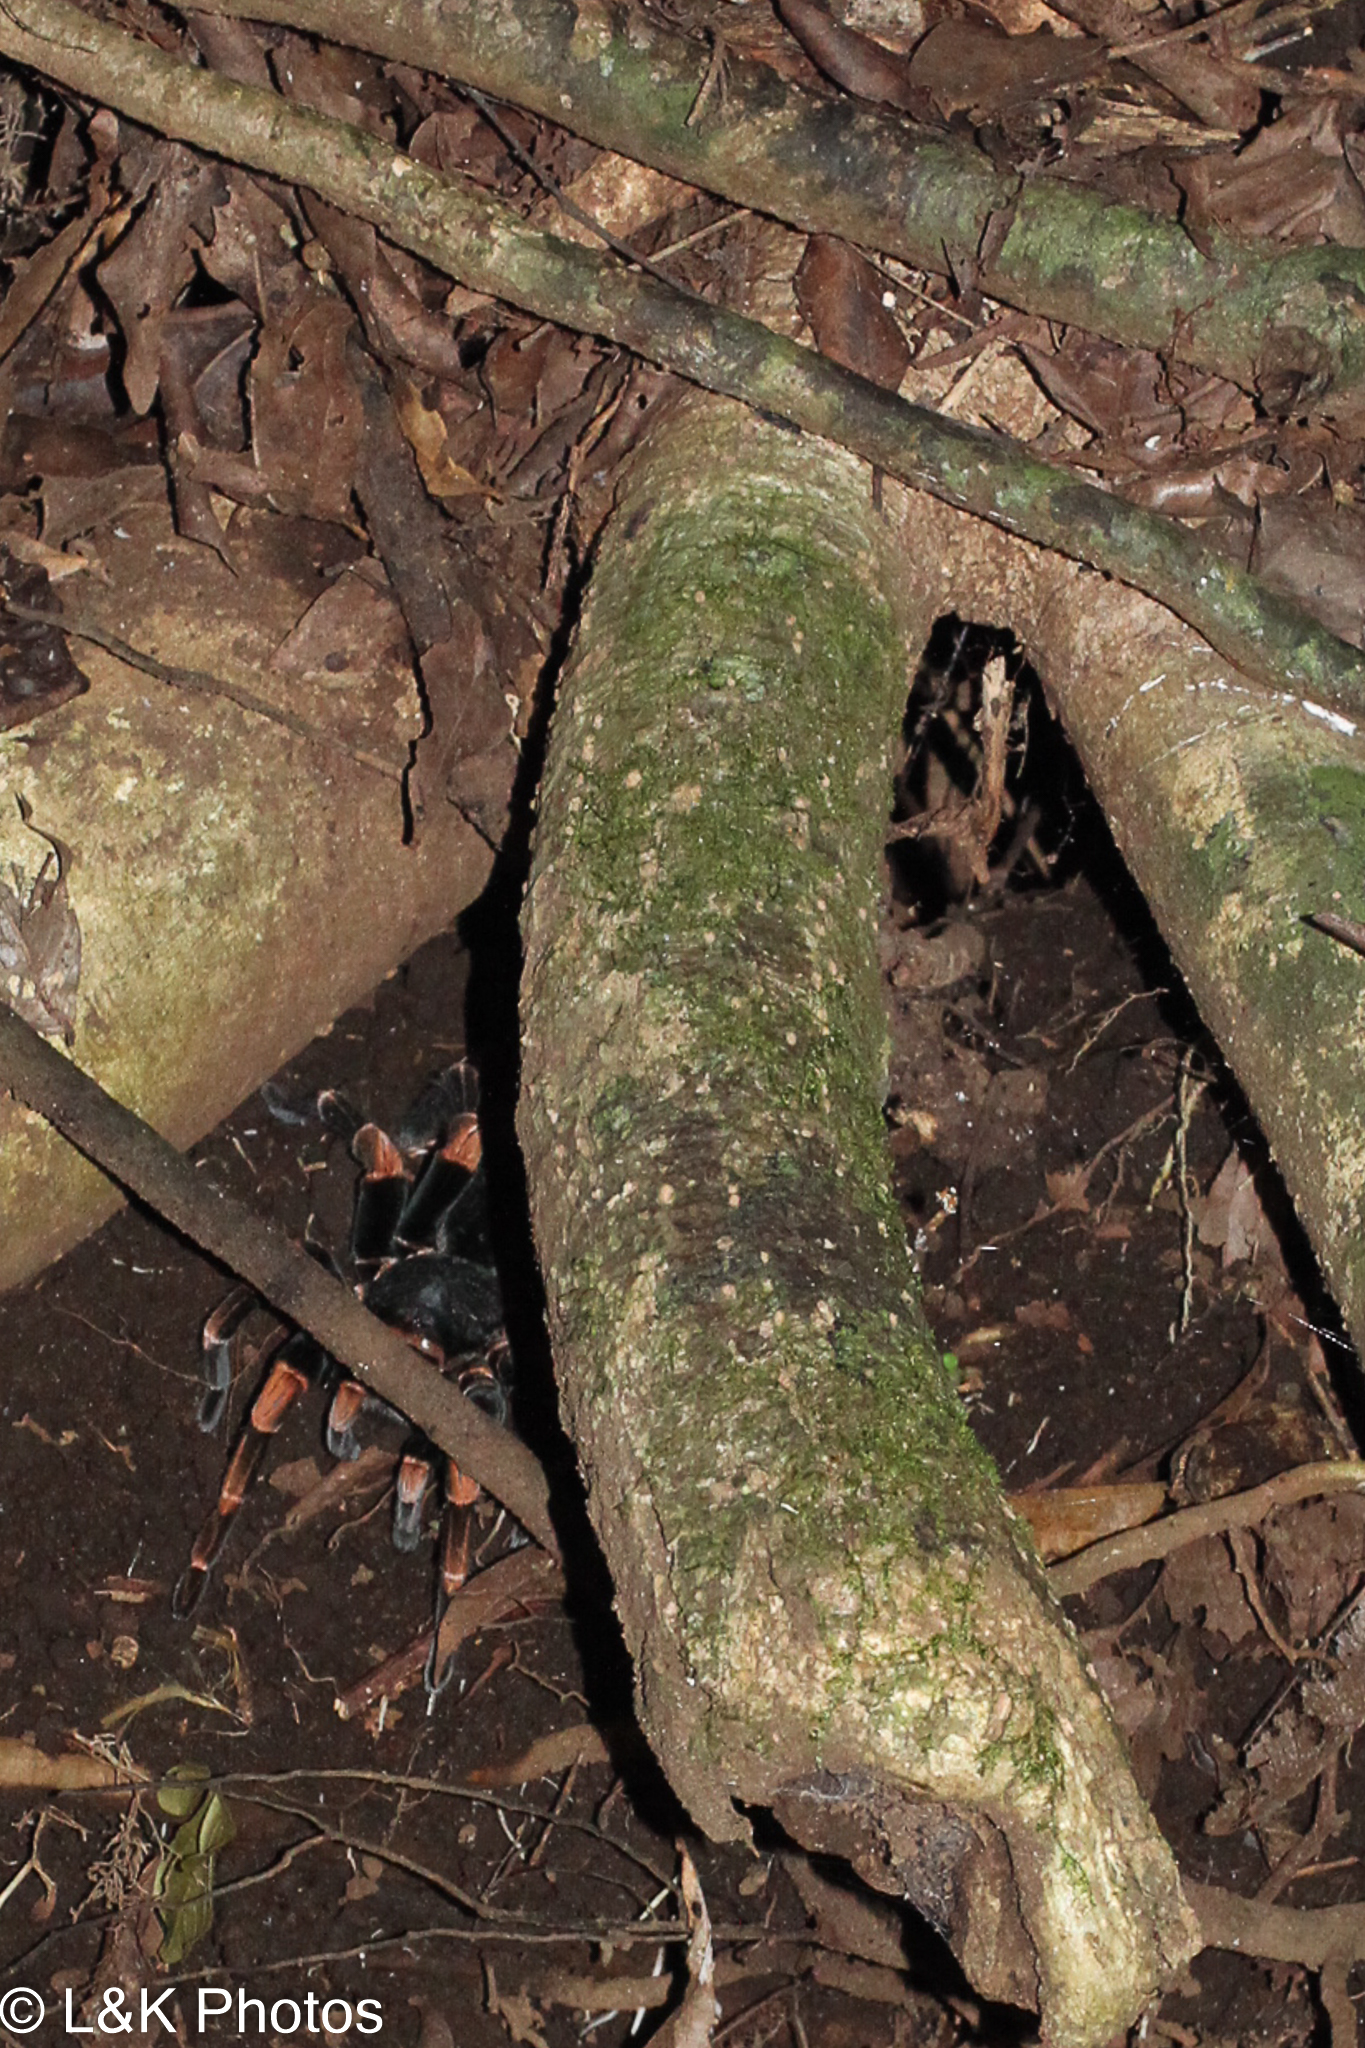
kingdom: Animalia
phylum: Arthropoda
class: Arachnida
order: Araneae
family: Theraphosidae
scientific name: Theraphosidae
